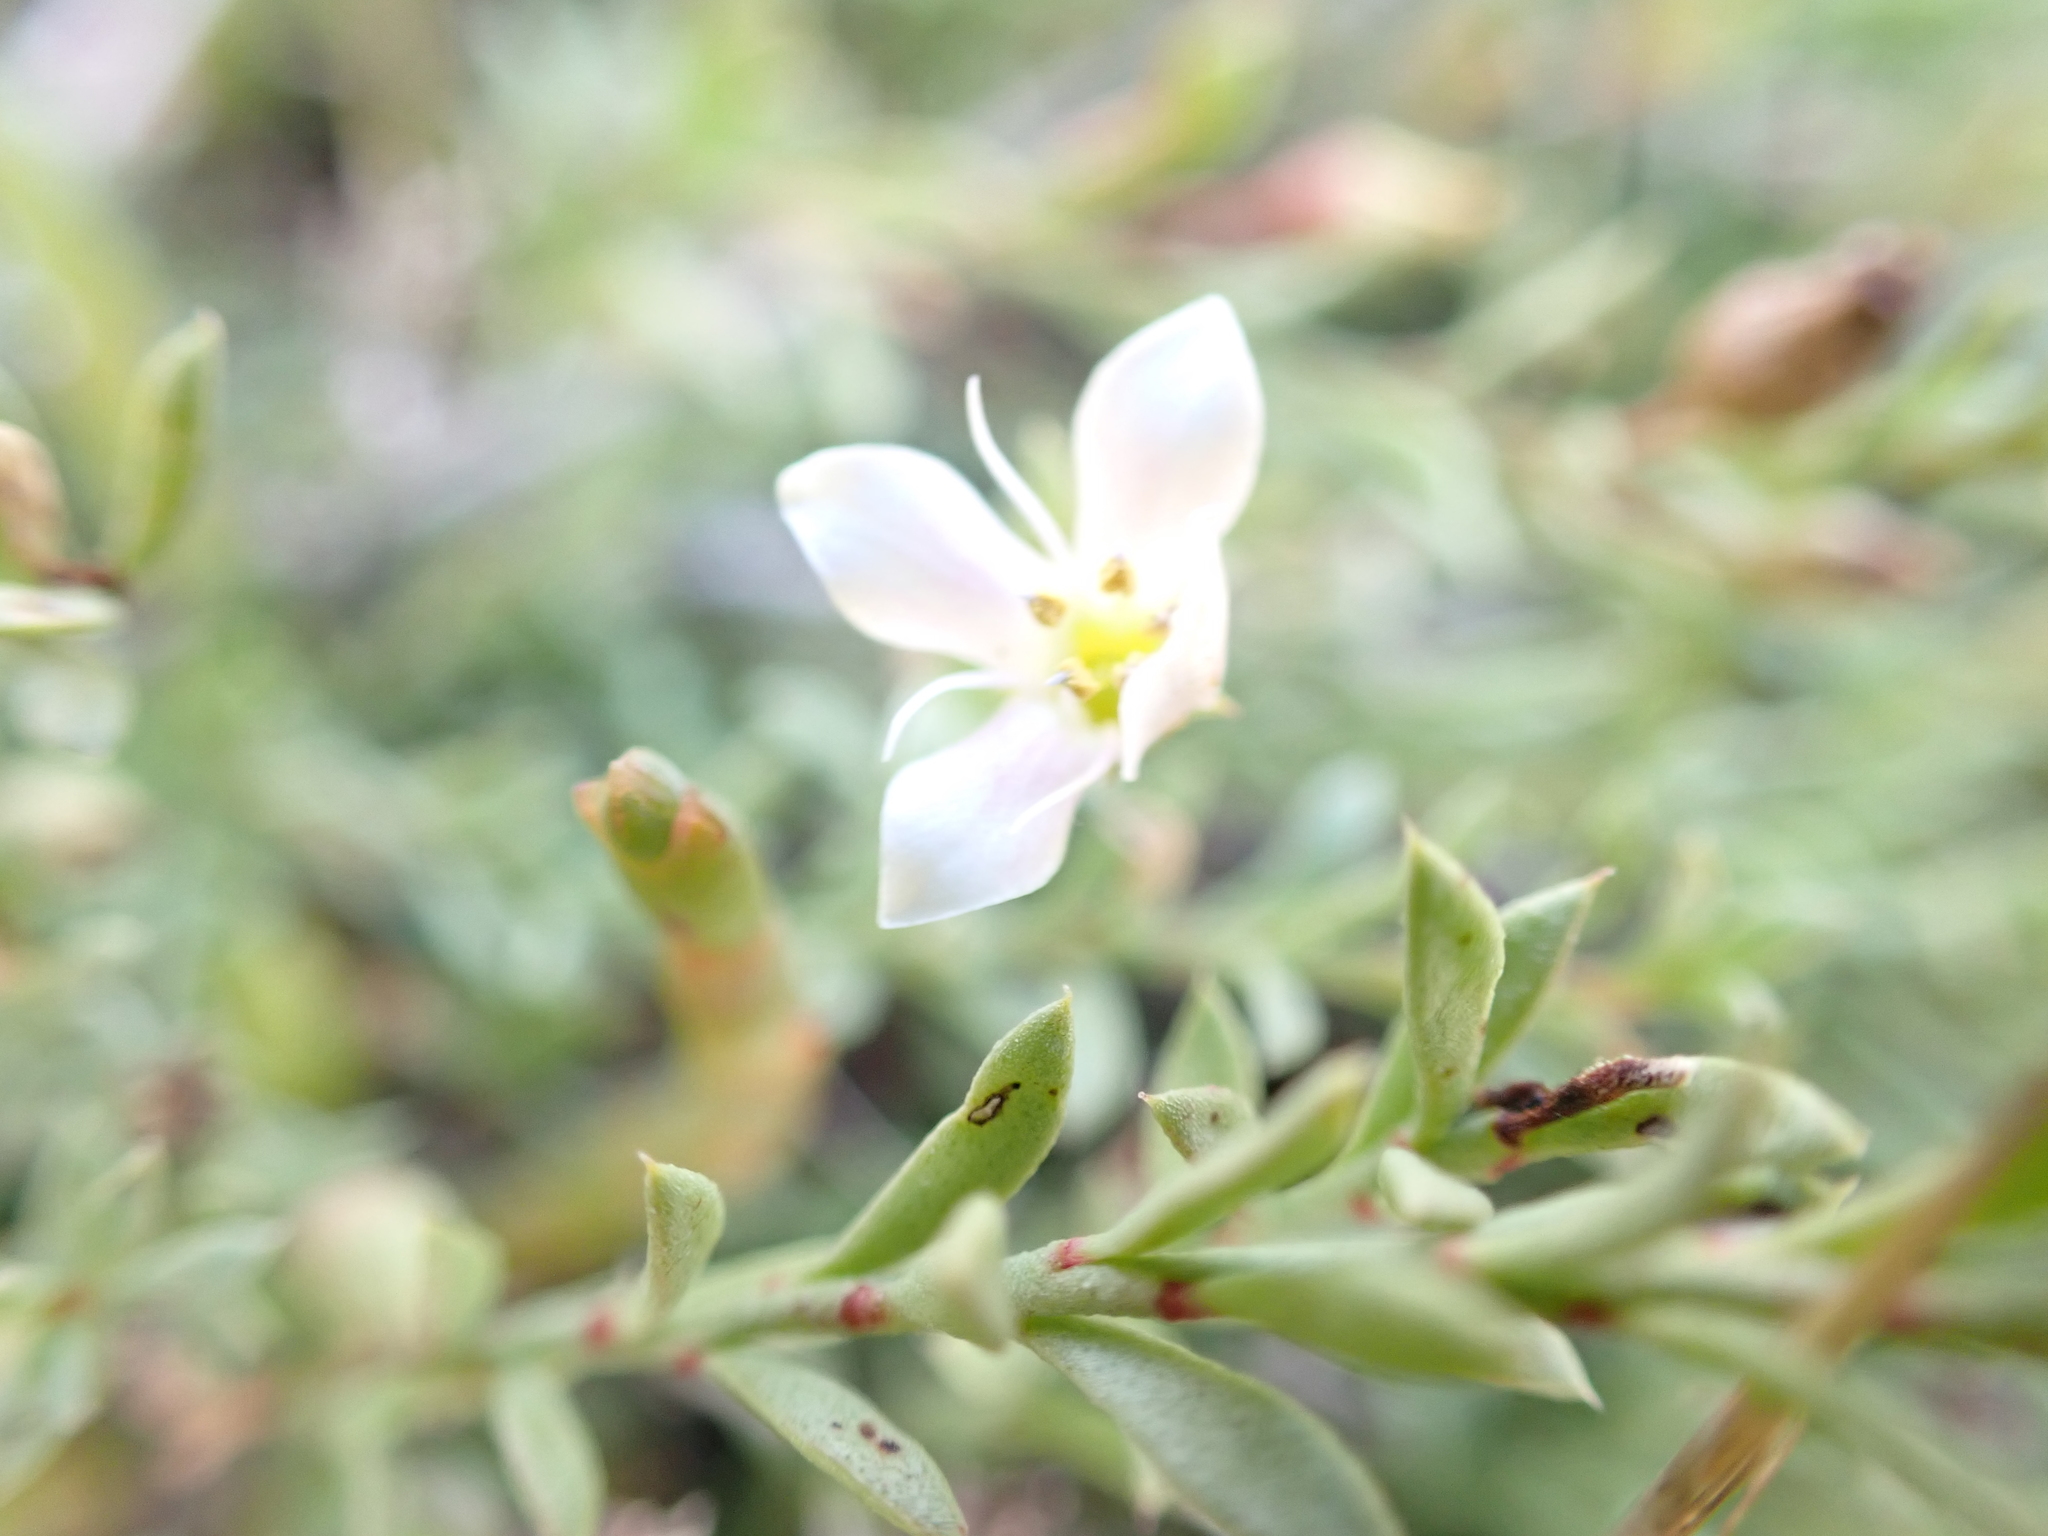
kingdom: Plantae
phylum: Tracheophyta
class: Magnoliopsida
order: Ericales
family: Primulaceae
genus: Samolus
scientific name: Samolus repens
